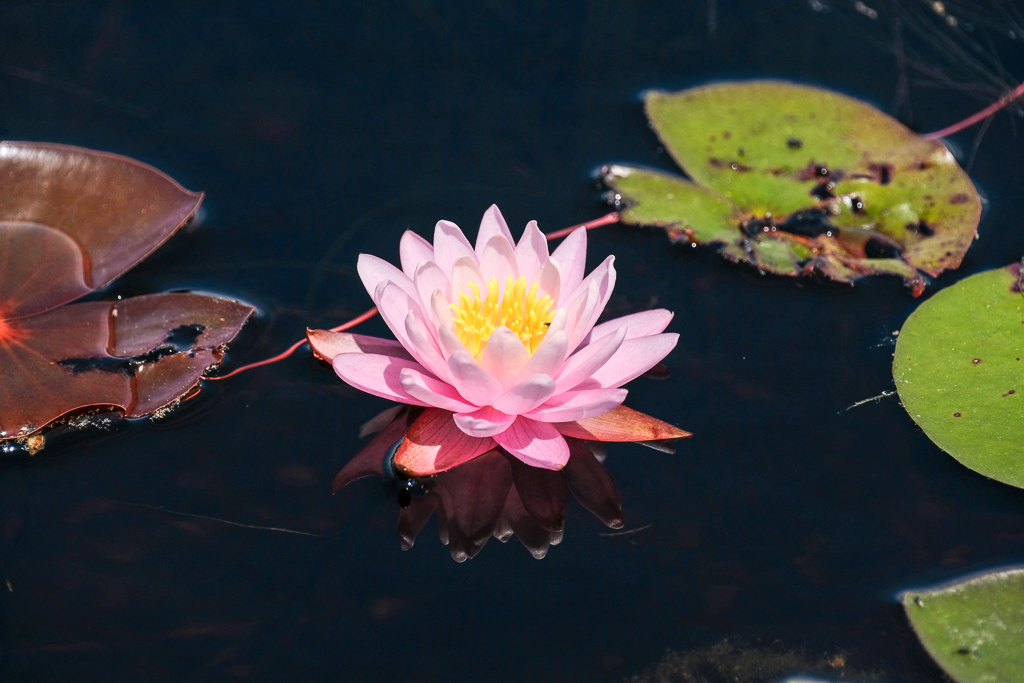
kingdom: Plantae
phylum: Tracheophyta
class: Magnoliopsida
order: Nymphaeales
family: Nymphaeaceae
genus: Nymphaea
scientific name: Nymphaea
